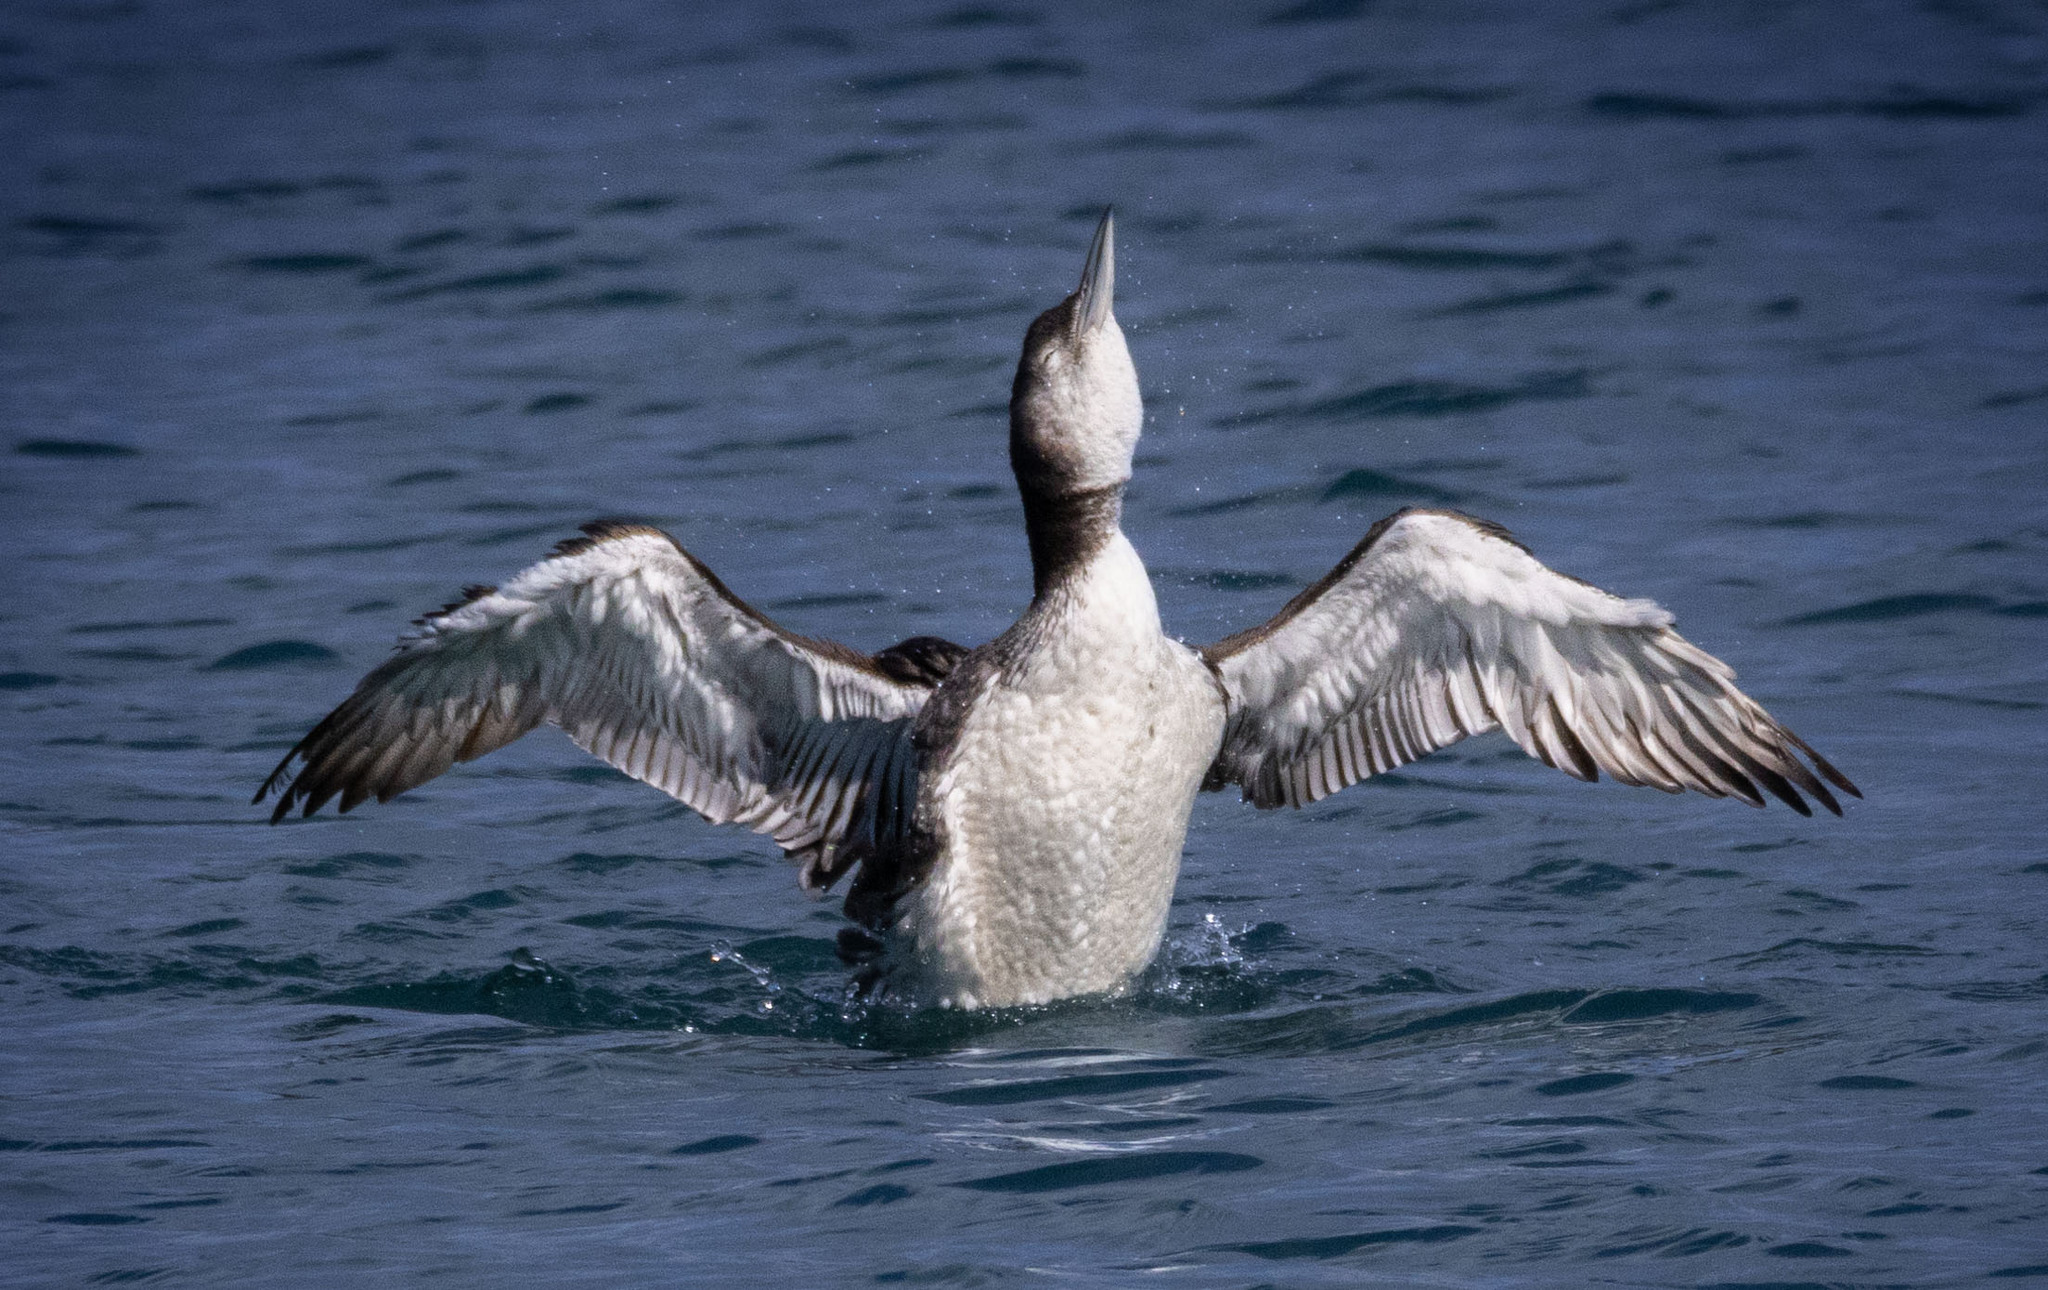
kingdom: Animalia
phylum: Chordata
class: Aves
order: Gaviiformes
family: Gaviidae
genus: Gavia
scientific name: Gavia immer
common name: Common loon
